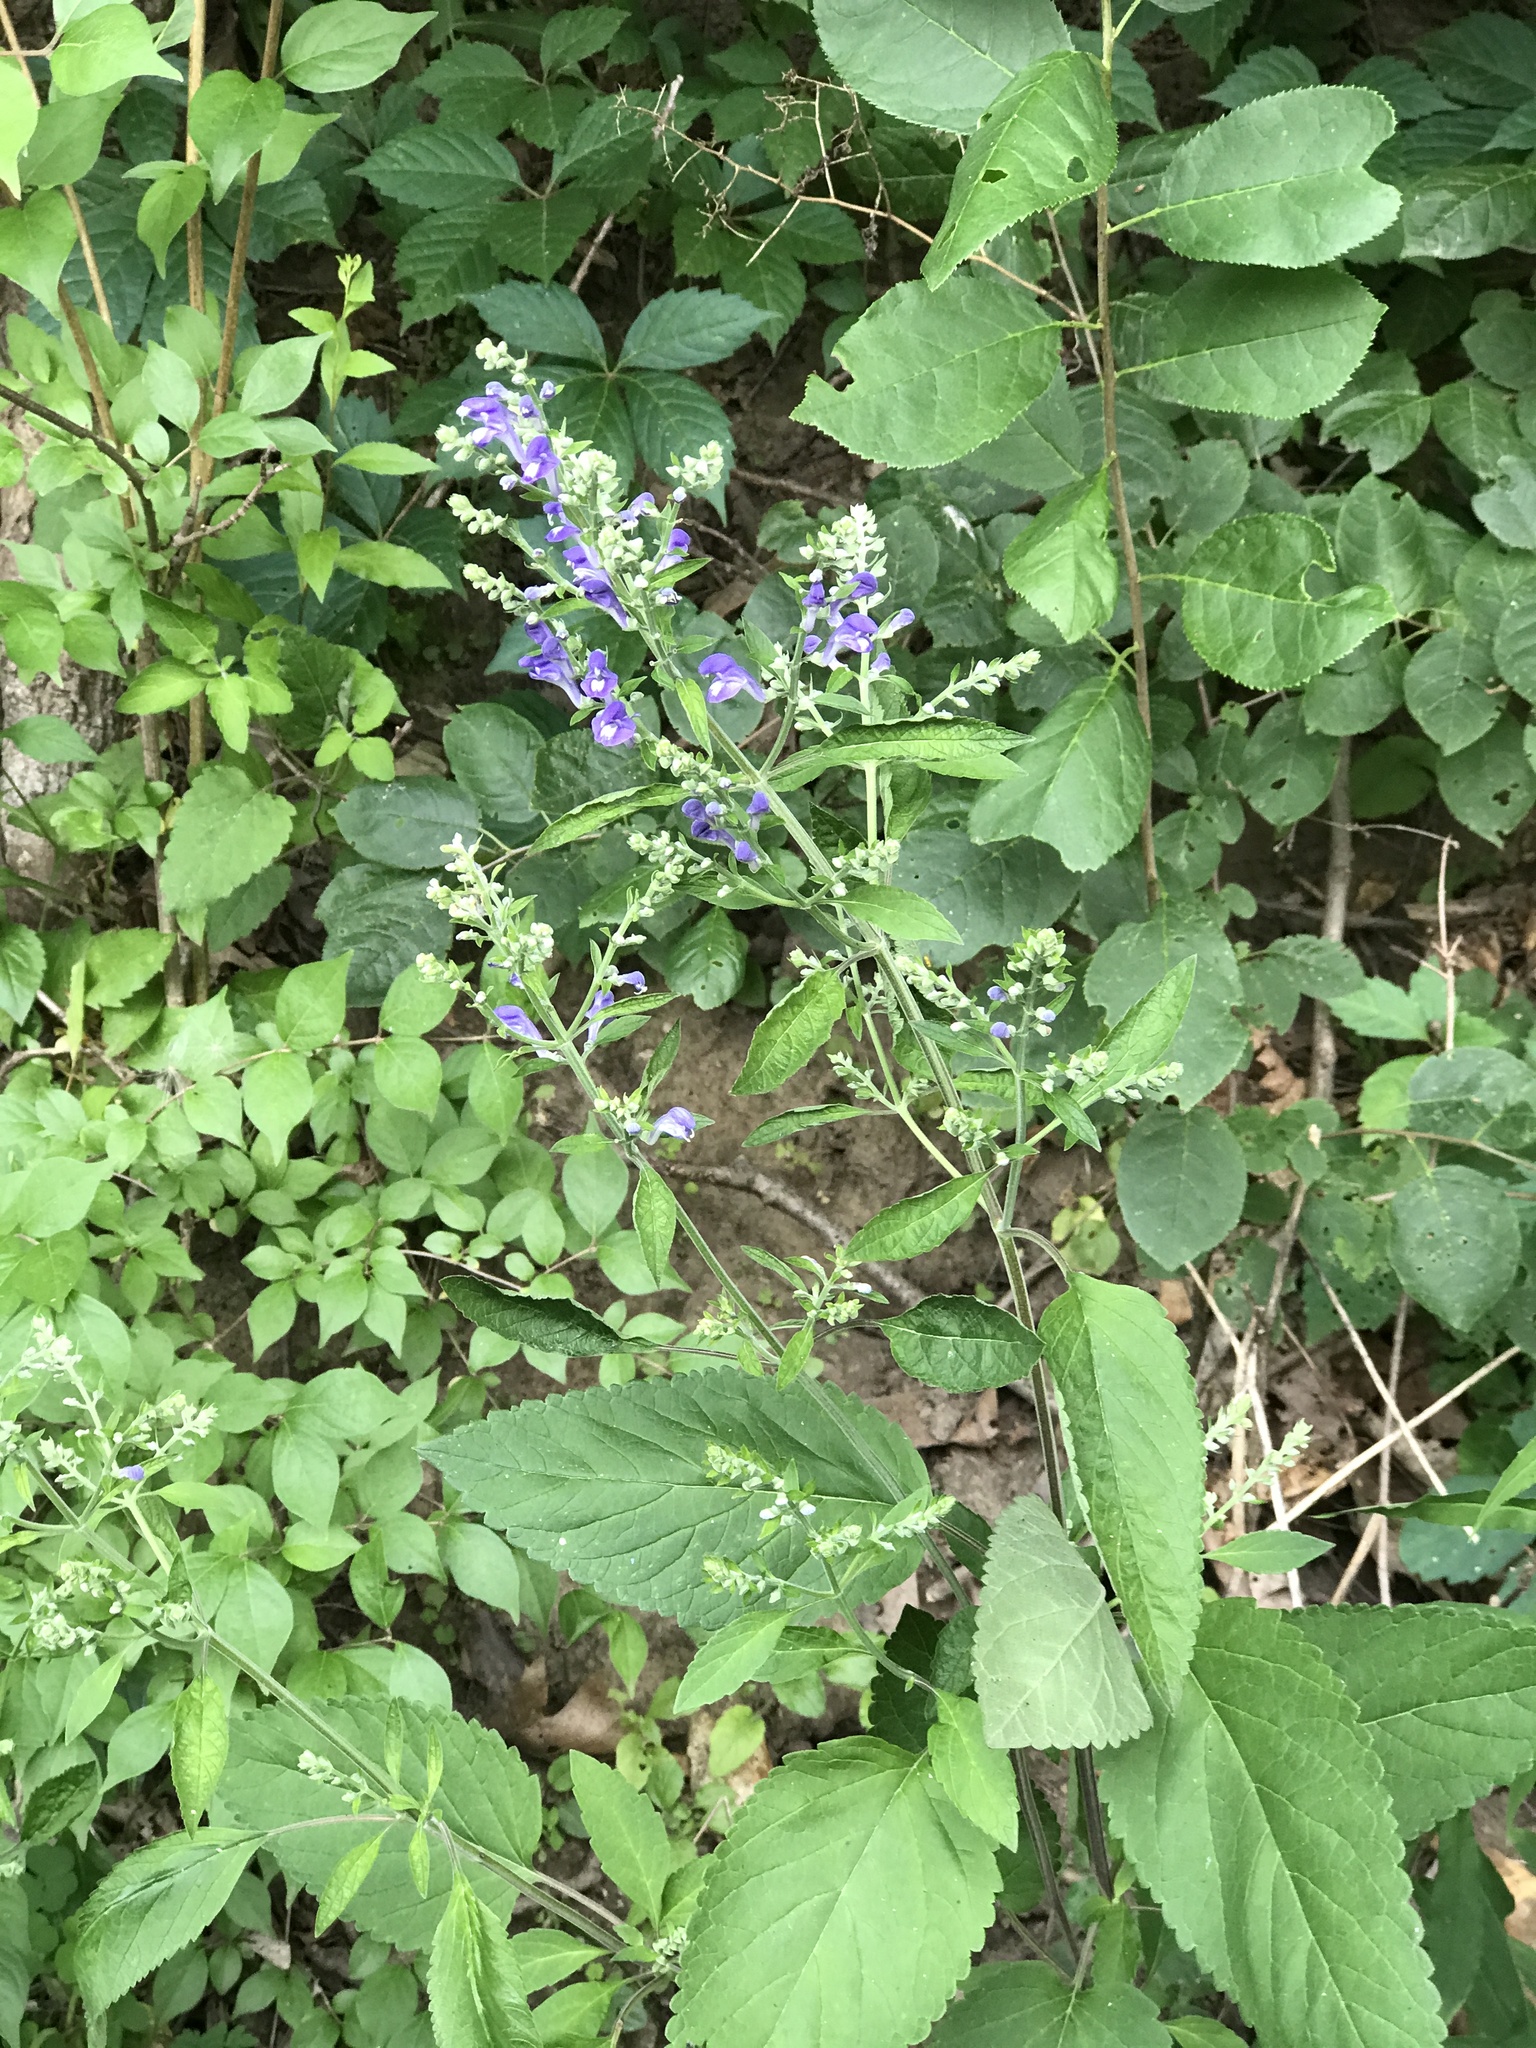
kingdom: Plantae
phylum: Tracheophyta
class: Magnoliopsida
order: Lamiales
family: Lamiaceae
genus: Scutellaria
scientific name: Scutellaria incana
